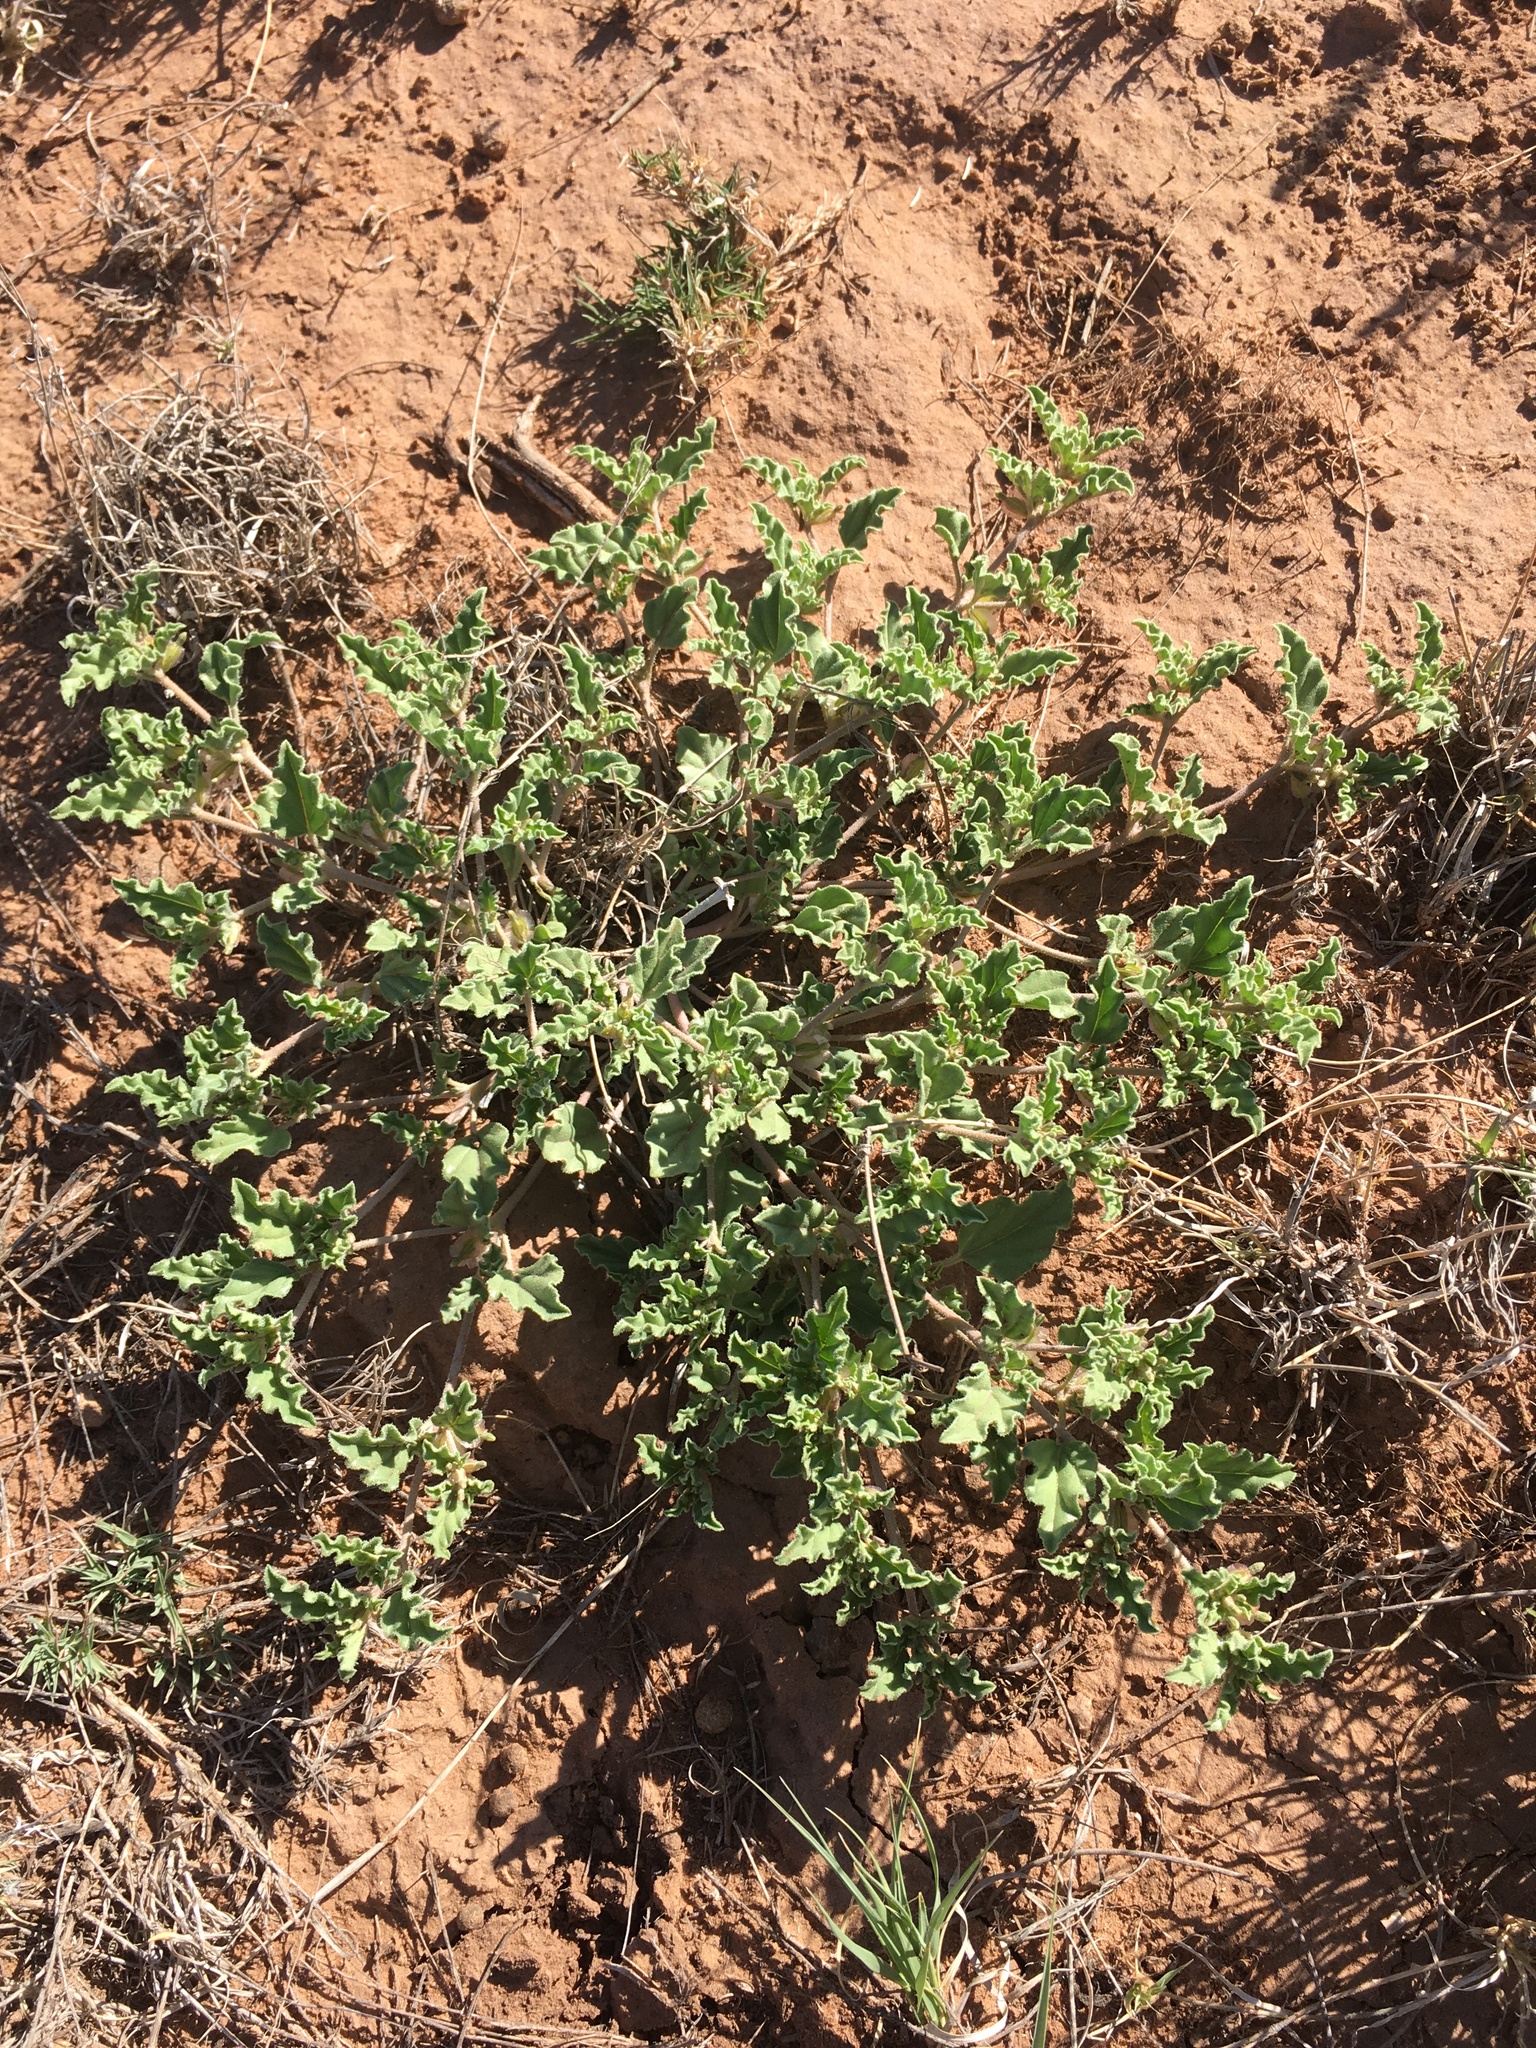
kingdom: Plantae
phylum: Tracheophyta
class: Magnoliopsida
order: Caryophyllales
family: Nyctaginaceae
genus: Acleisanthes
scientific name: Acleisanthes diffusa
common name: Spreading moonpod
